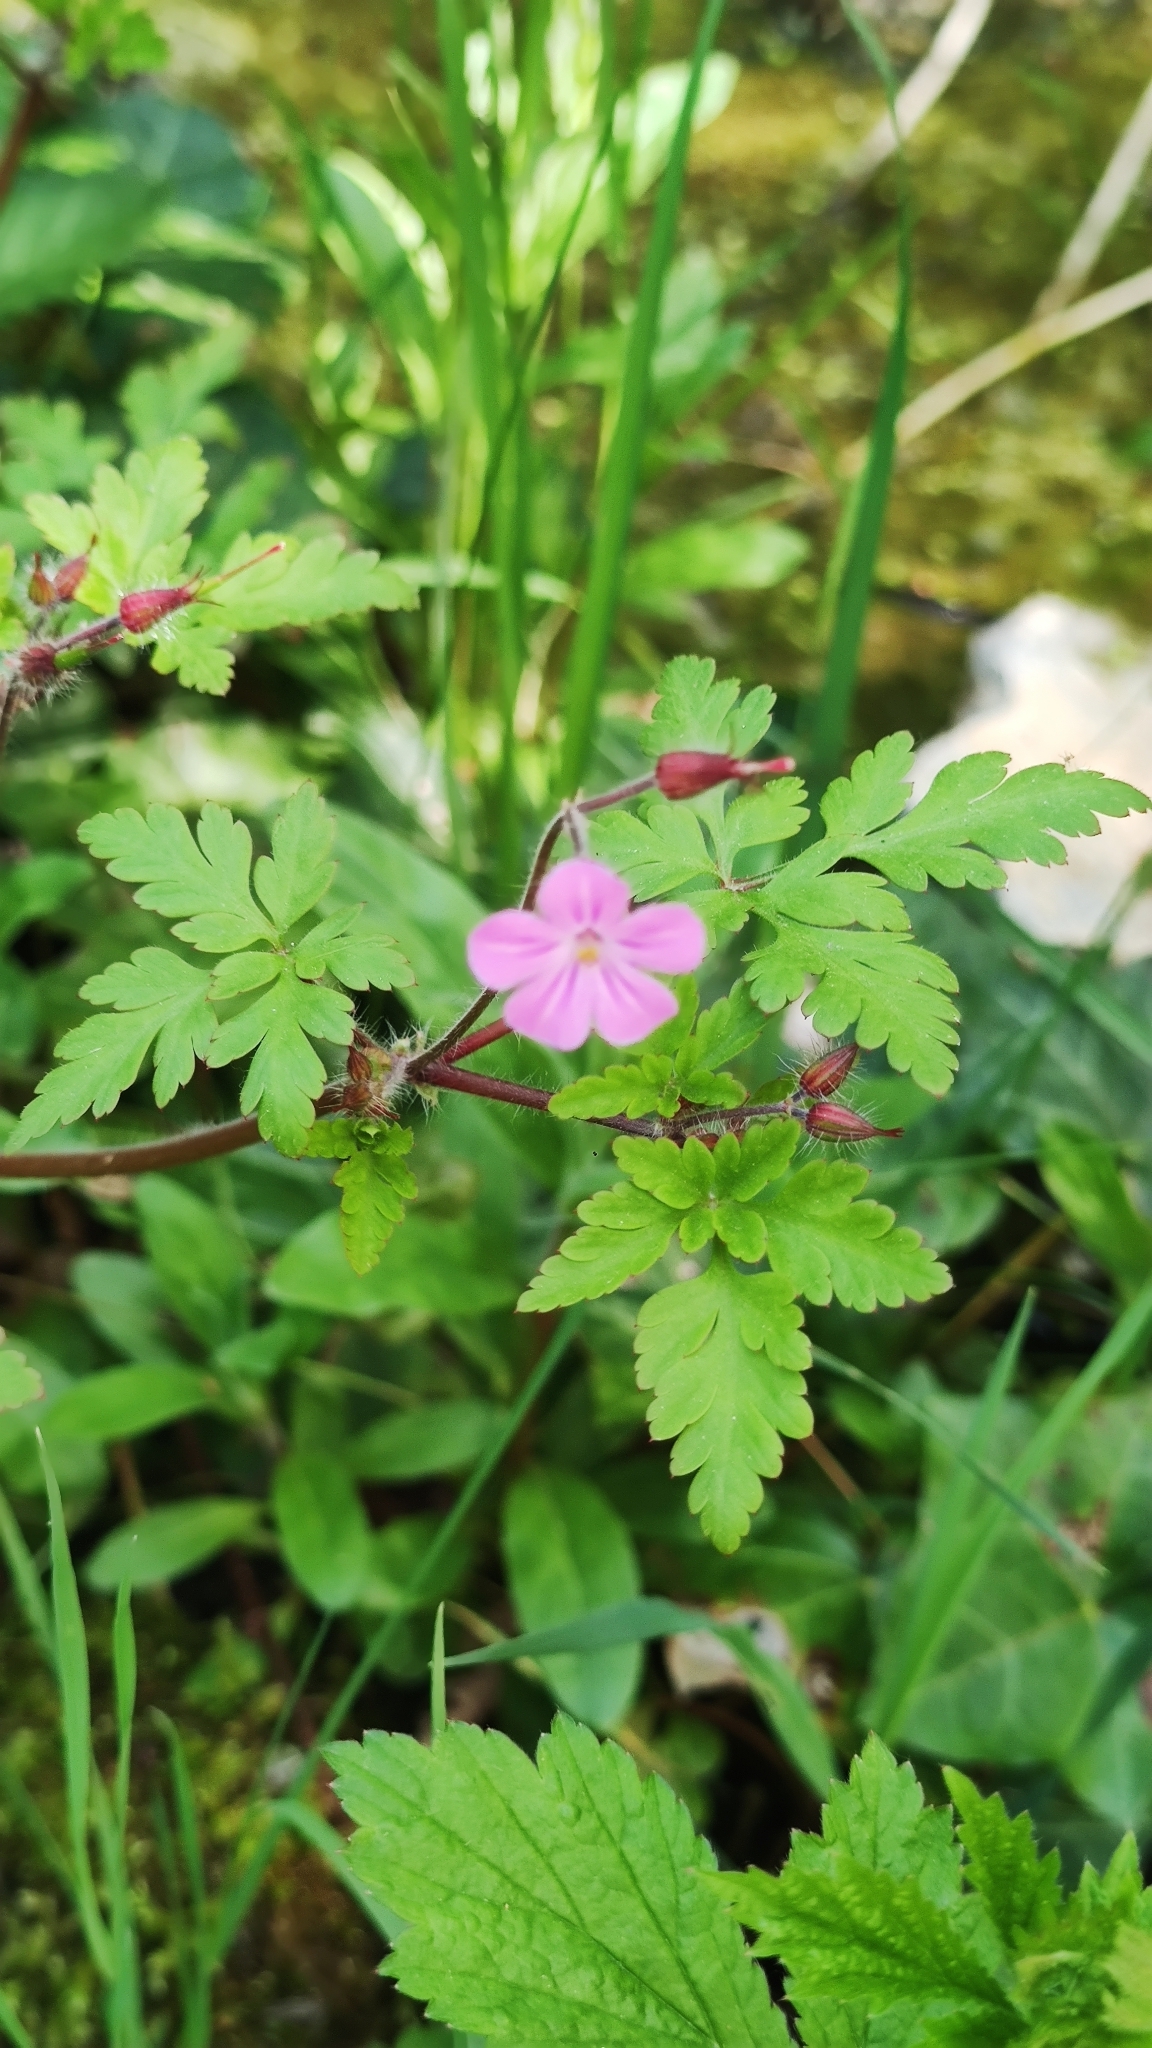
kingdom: Plantae
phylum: Tracheophyta
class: Magnoliopsida
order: Geraniales
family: Geraniaceae
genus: Geranium
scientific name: Geranium robertianum
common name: Herb-robert
